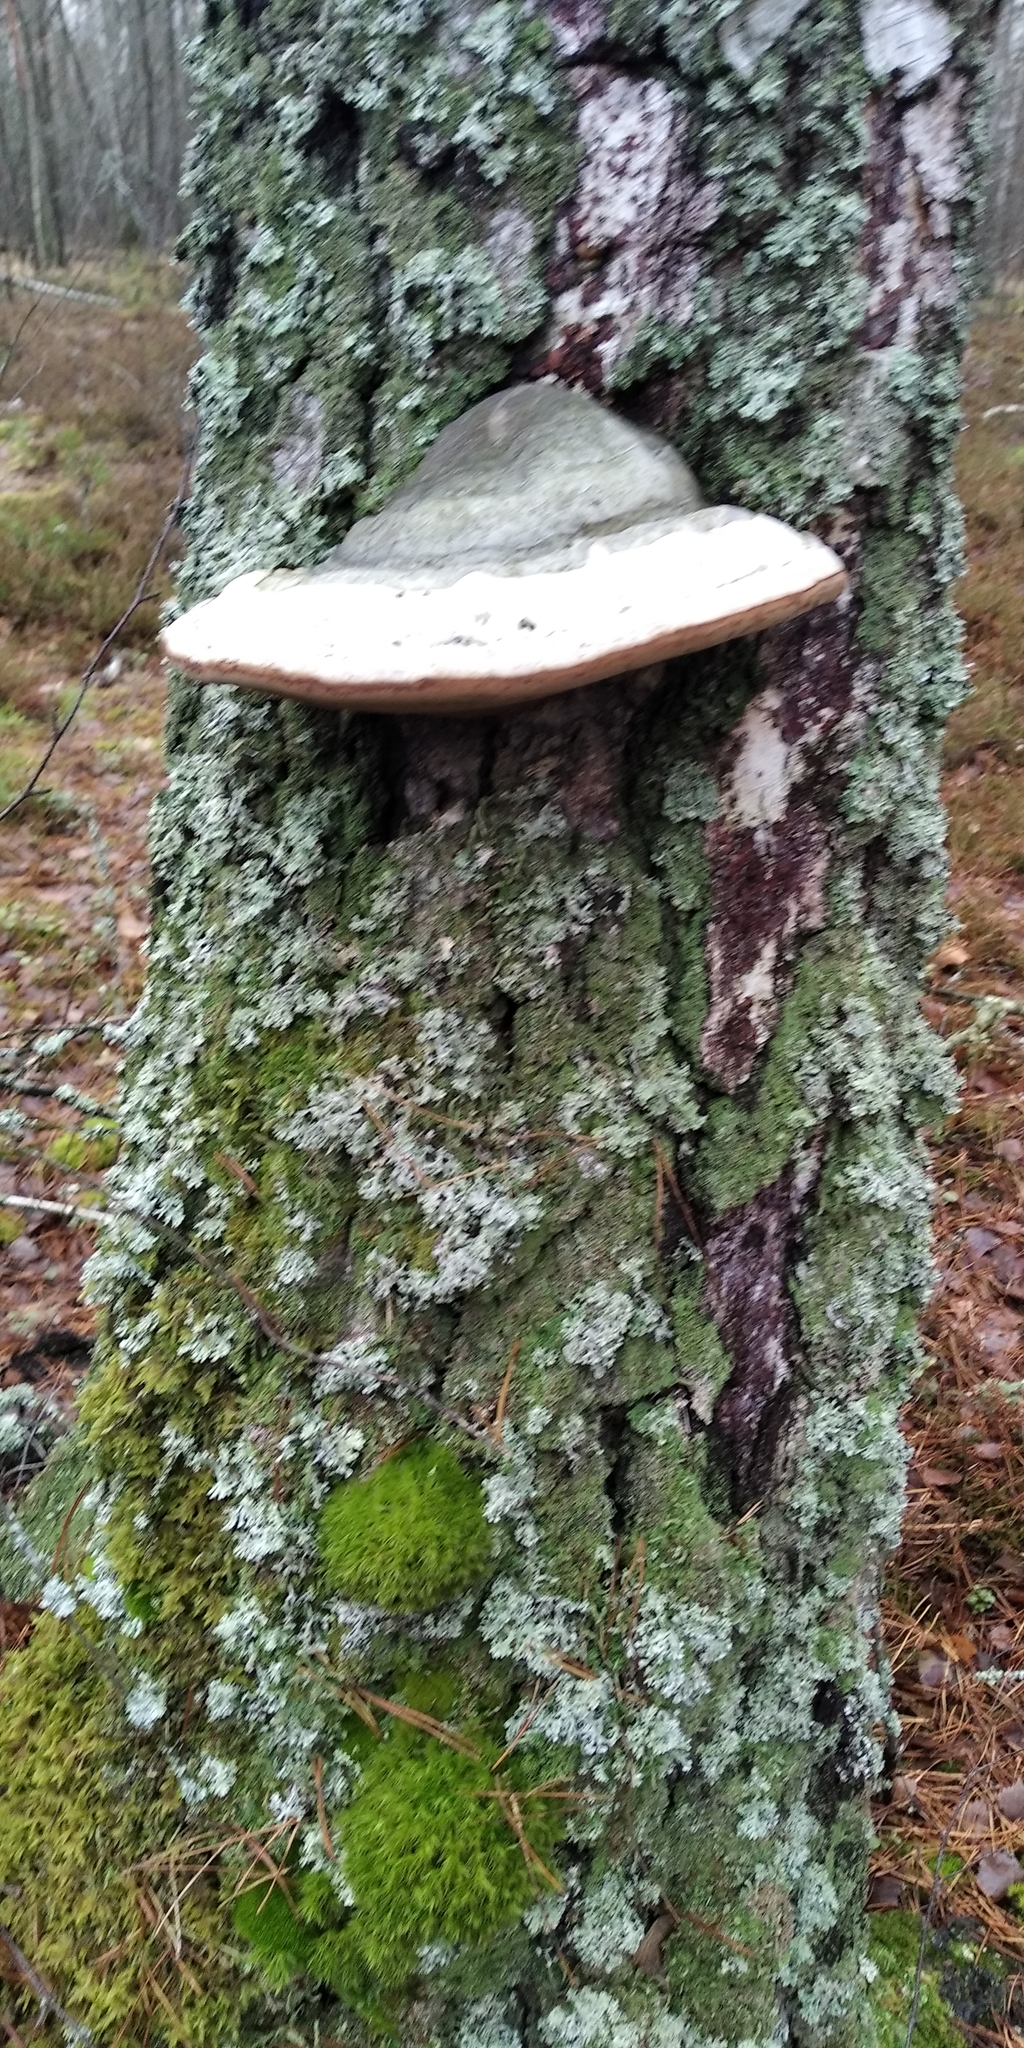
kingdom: Fungi
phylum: Basidiomycota
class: Agaricomycetes
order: Polyporales
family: Polyporaceae
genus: Fomes
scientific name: Fomes fomentarius
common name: Hoof fungus
